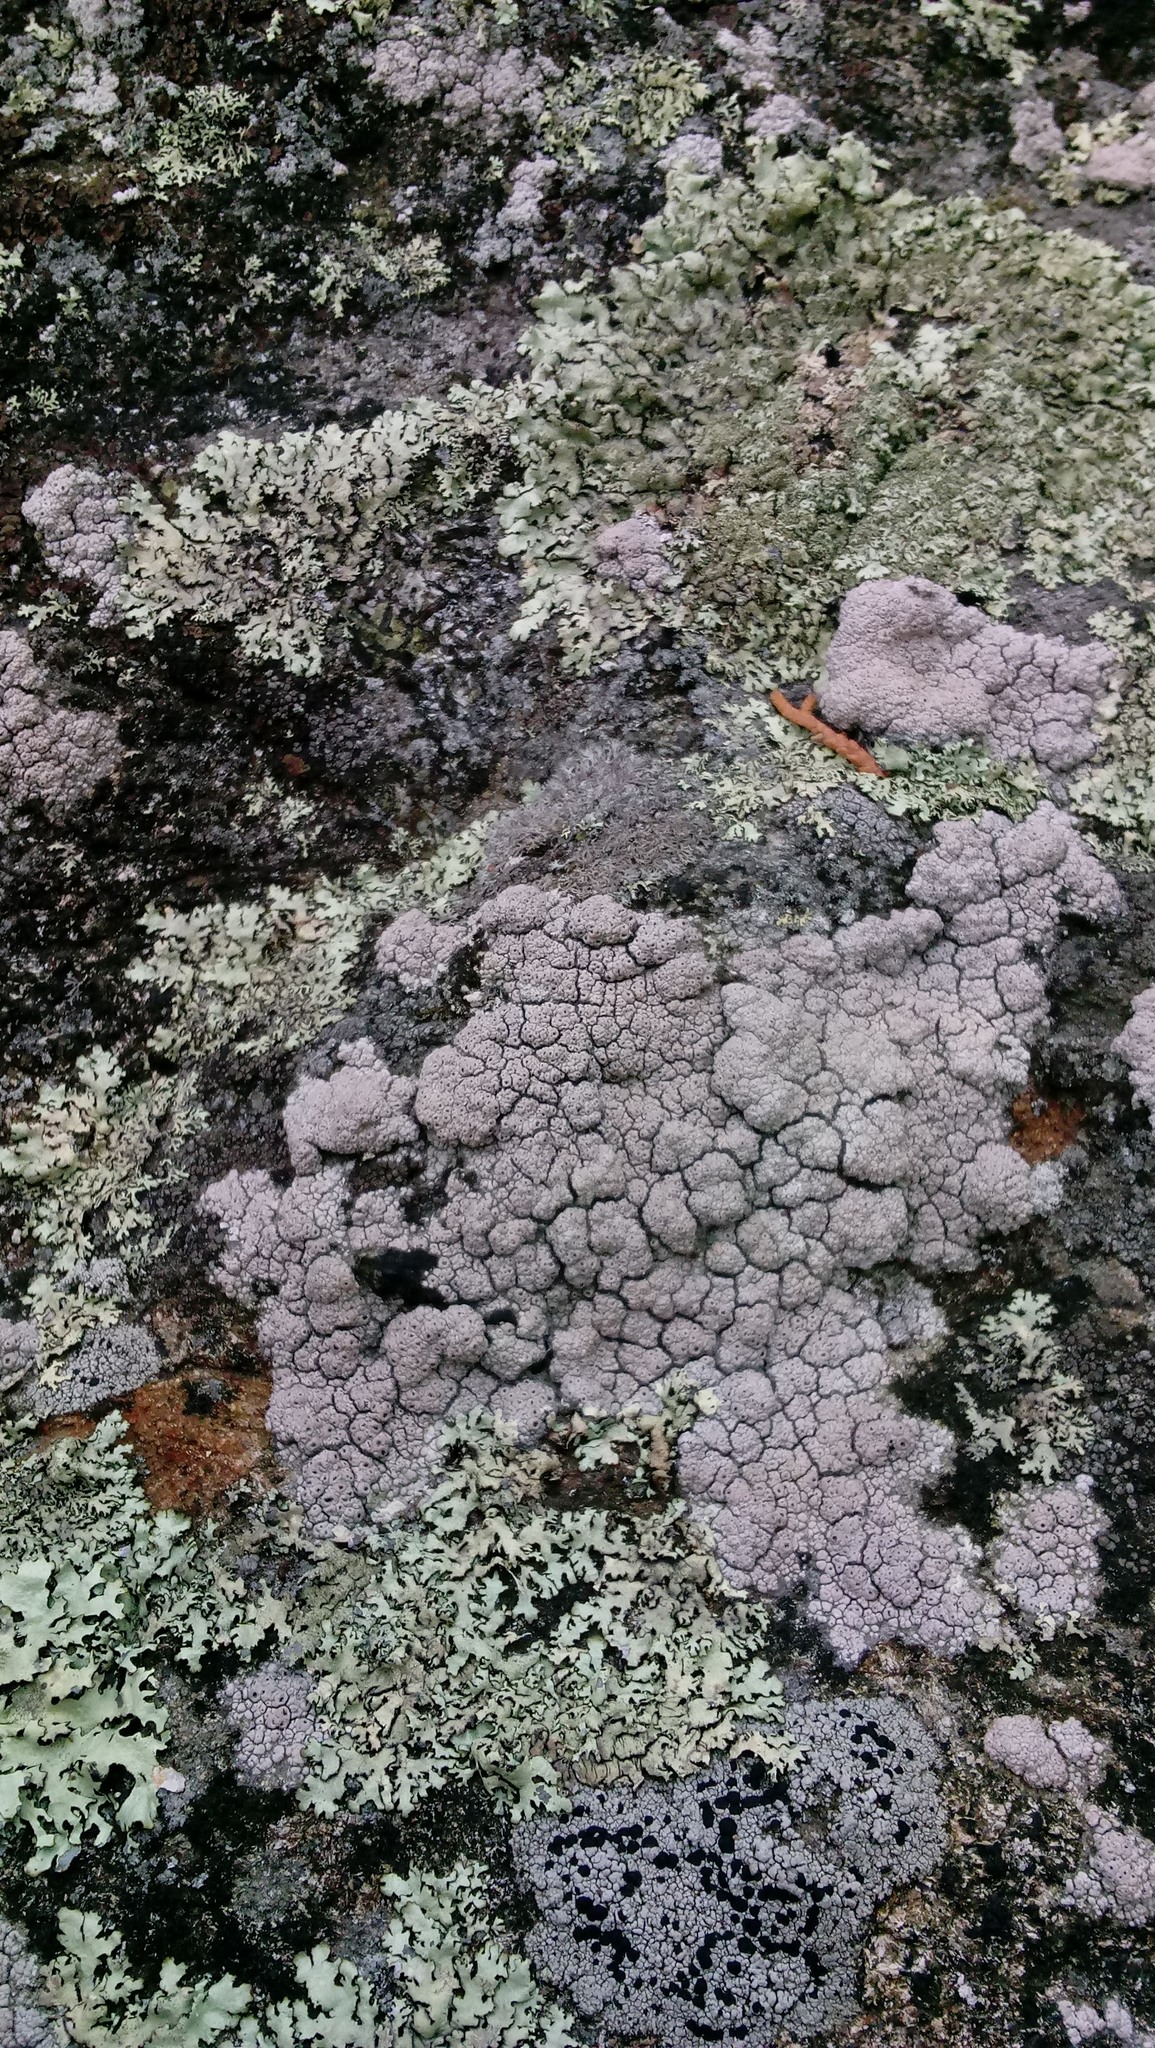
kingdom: Fungi
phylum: Ascomycota
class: Lecanoromycetes
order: Ostropales
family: Graphidaceae
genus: Diploschistes
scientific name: Diploschistes scruposus
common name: Crater lichen
